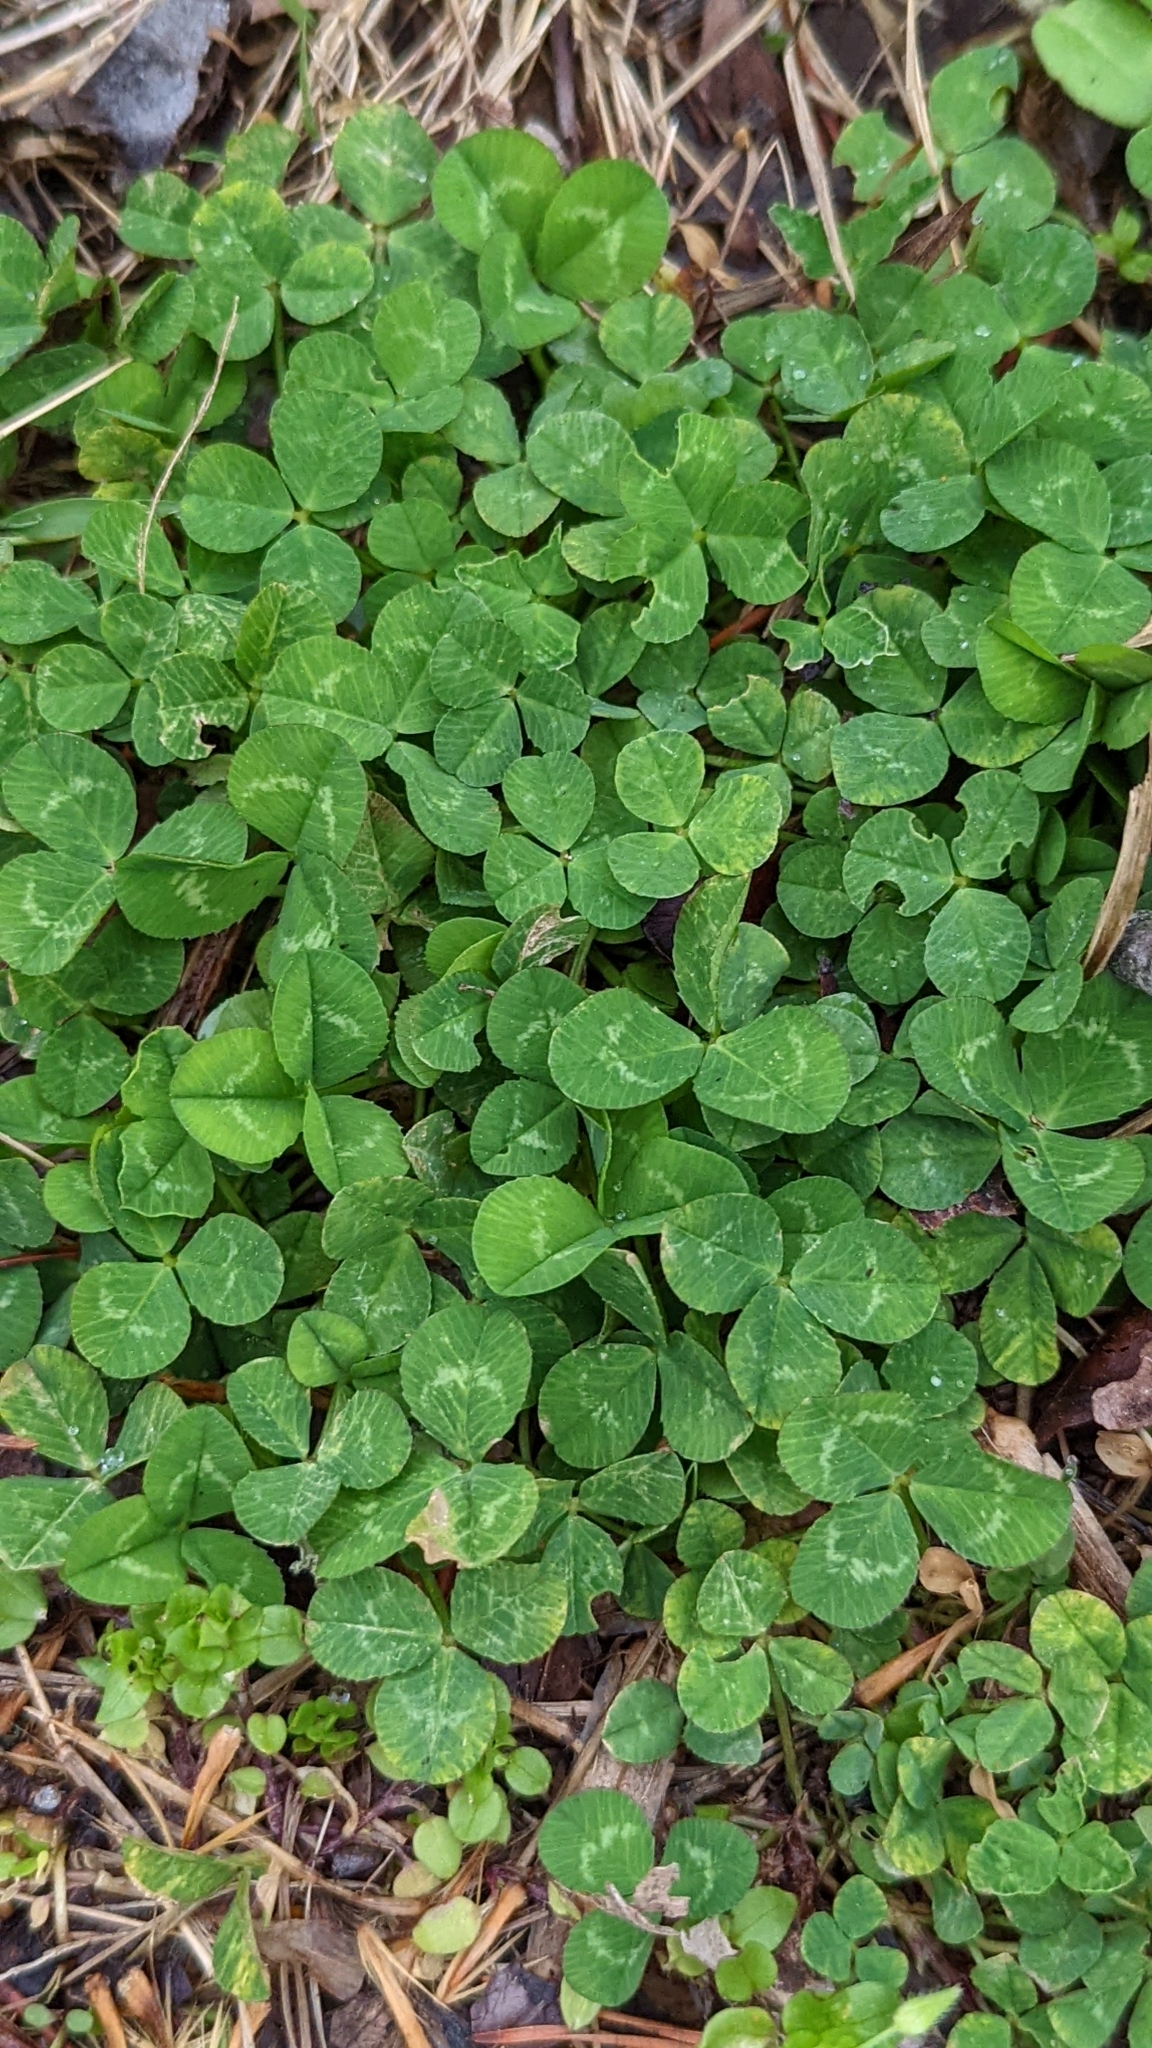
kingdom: Plantae
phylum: Tracheophyta
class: Magnoliopsida
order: Fabales
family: Fabaceae
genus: Trifolium
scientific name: Trifolium repens
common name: White clover
